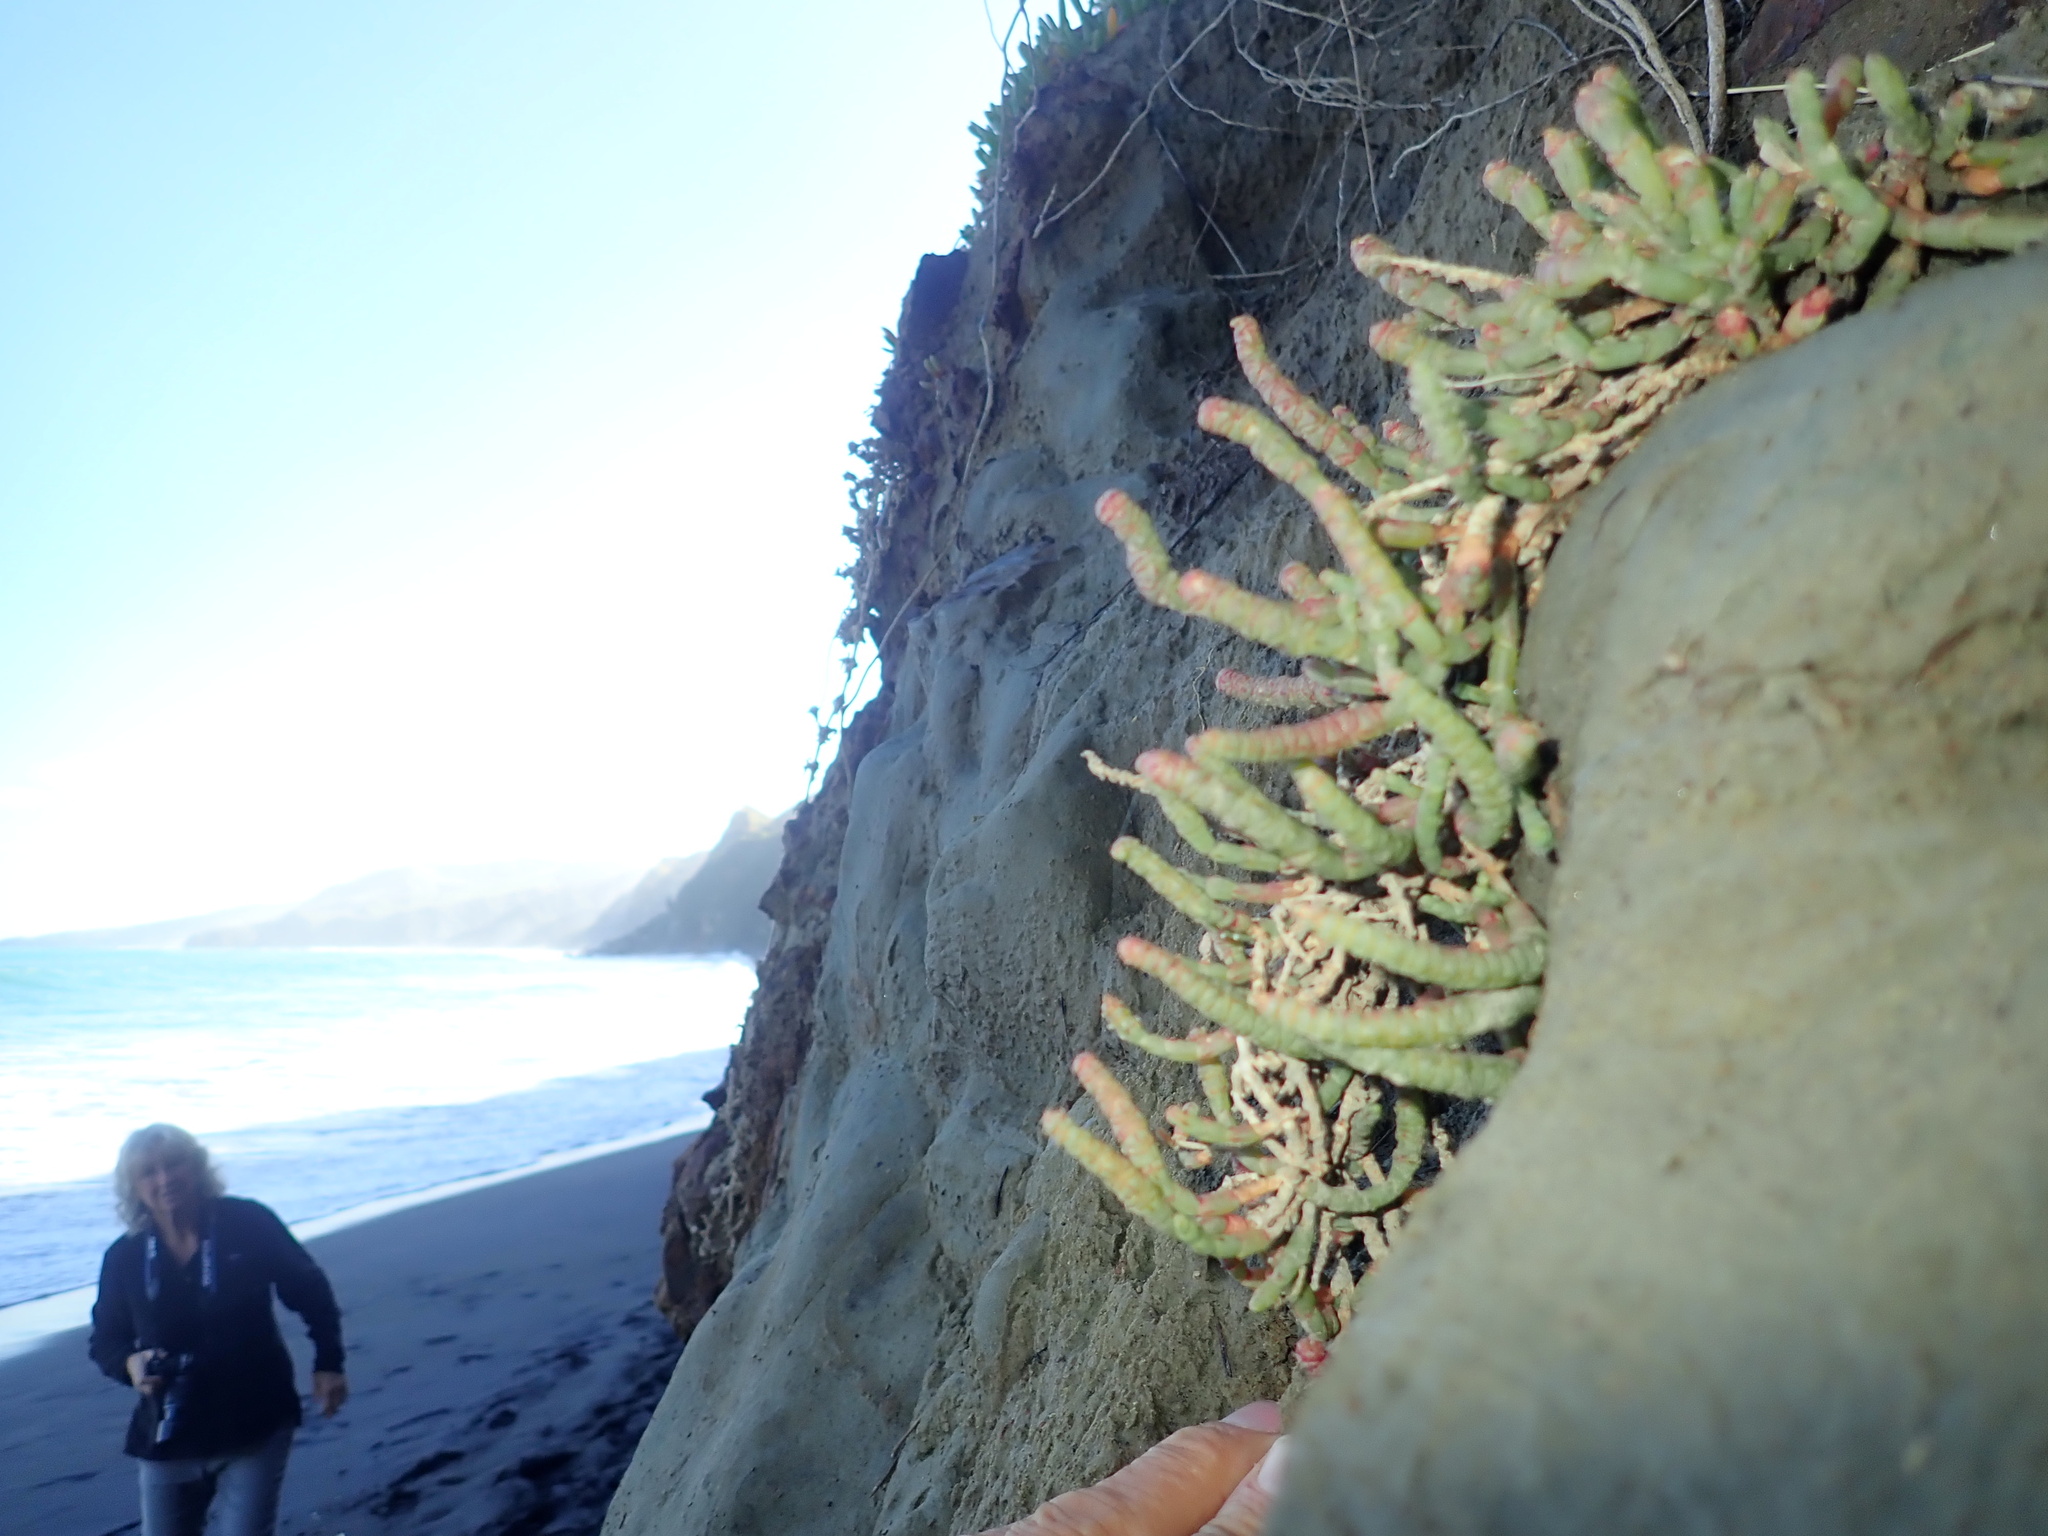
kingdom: Plantae
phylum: Tracheophyta
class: Magnoliopsida
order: Caryophyllales
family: Amaranthaceae
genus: Salicornia
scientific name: Salicornia quinqueflora
